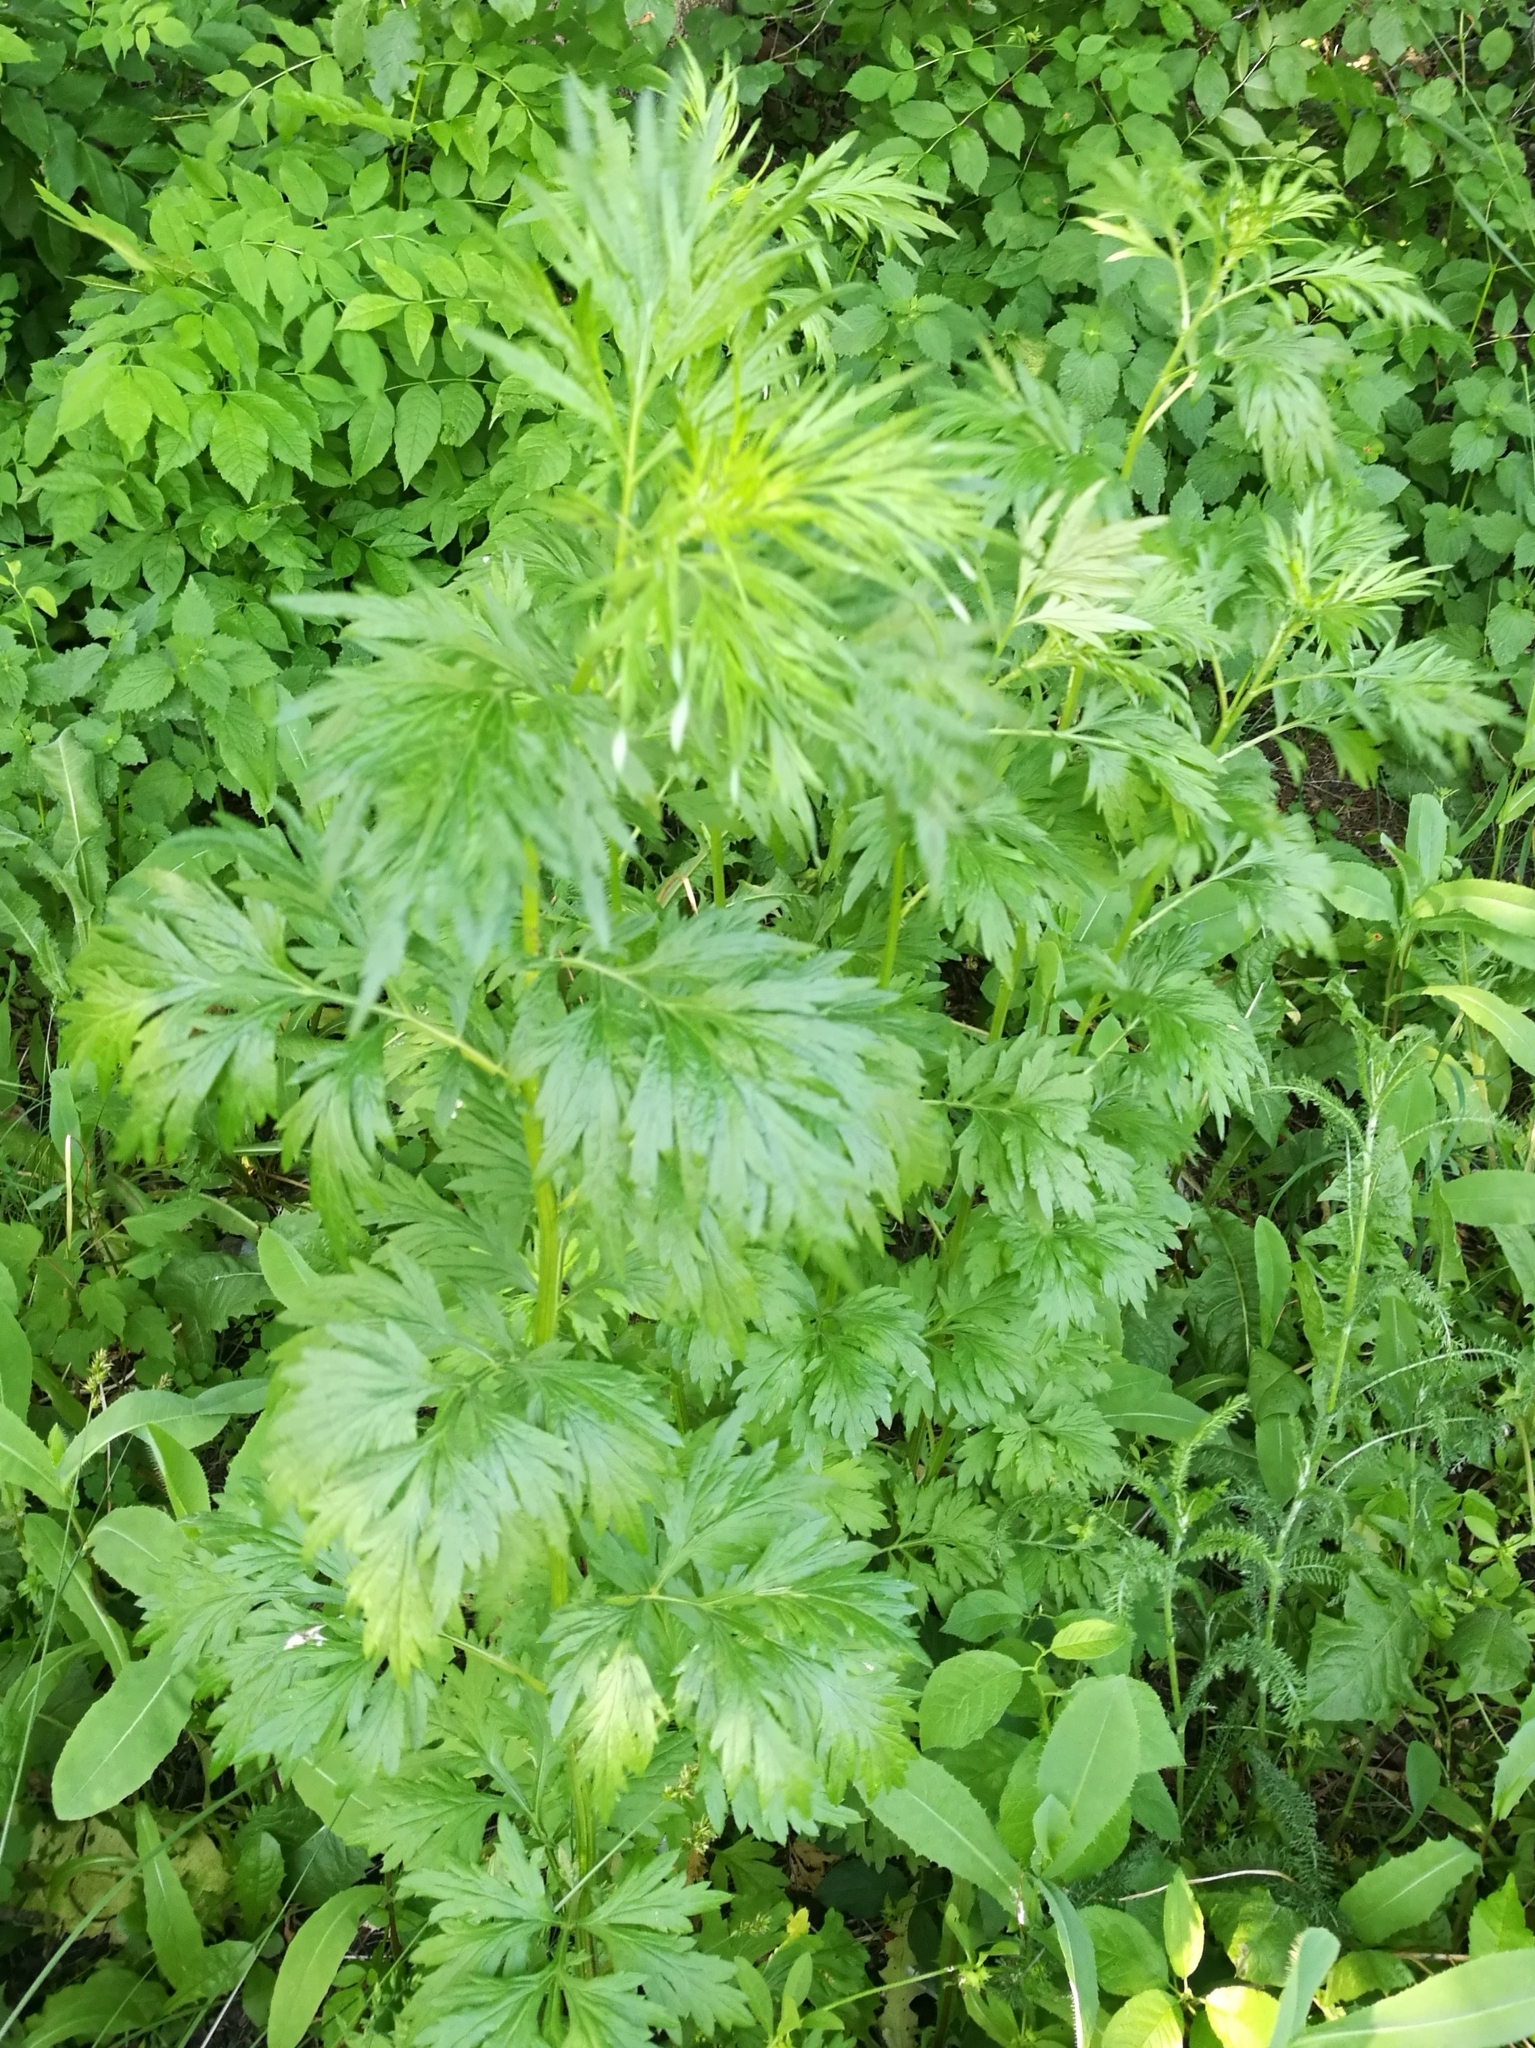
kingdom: Plantae
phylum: Tracheophyta
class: Magnoliopsida
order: Asterales
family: Asteraceae
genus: Artemisia
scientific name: Artemisia vulgaris
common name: Mugwort
